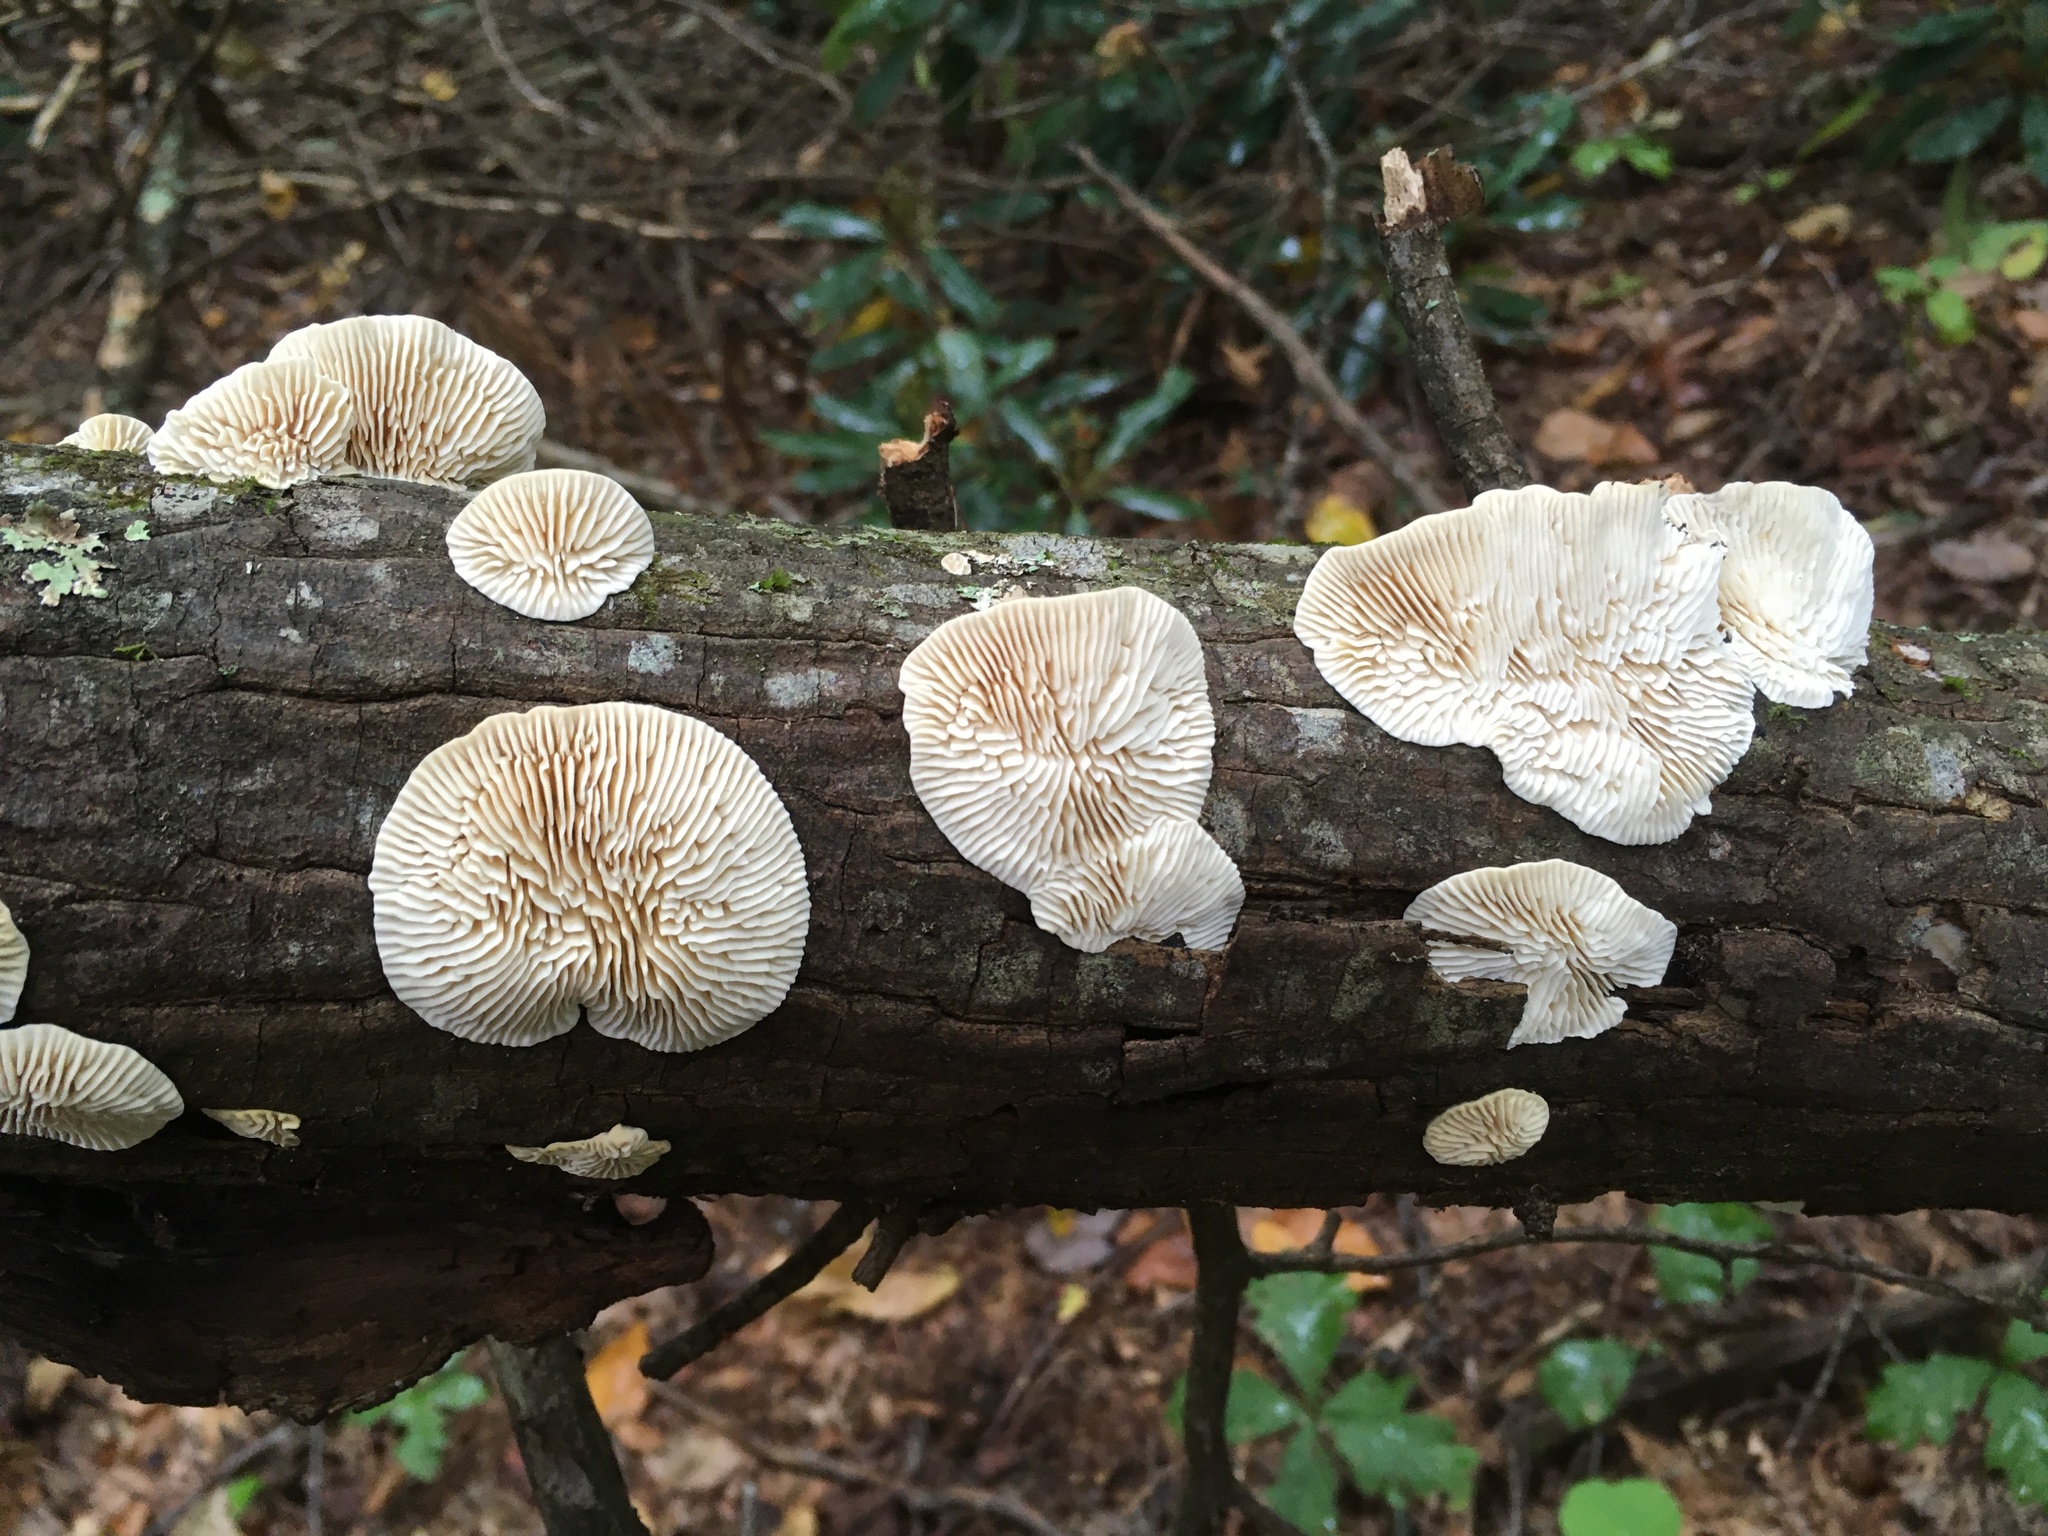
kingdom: Fungi
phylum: Basidiomycota
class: Agaricomycetes
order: Polyporales
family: Polyporaceae
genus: Lenzites
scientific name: Lenzites betulinus
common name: Birch mazegill
